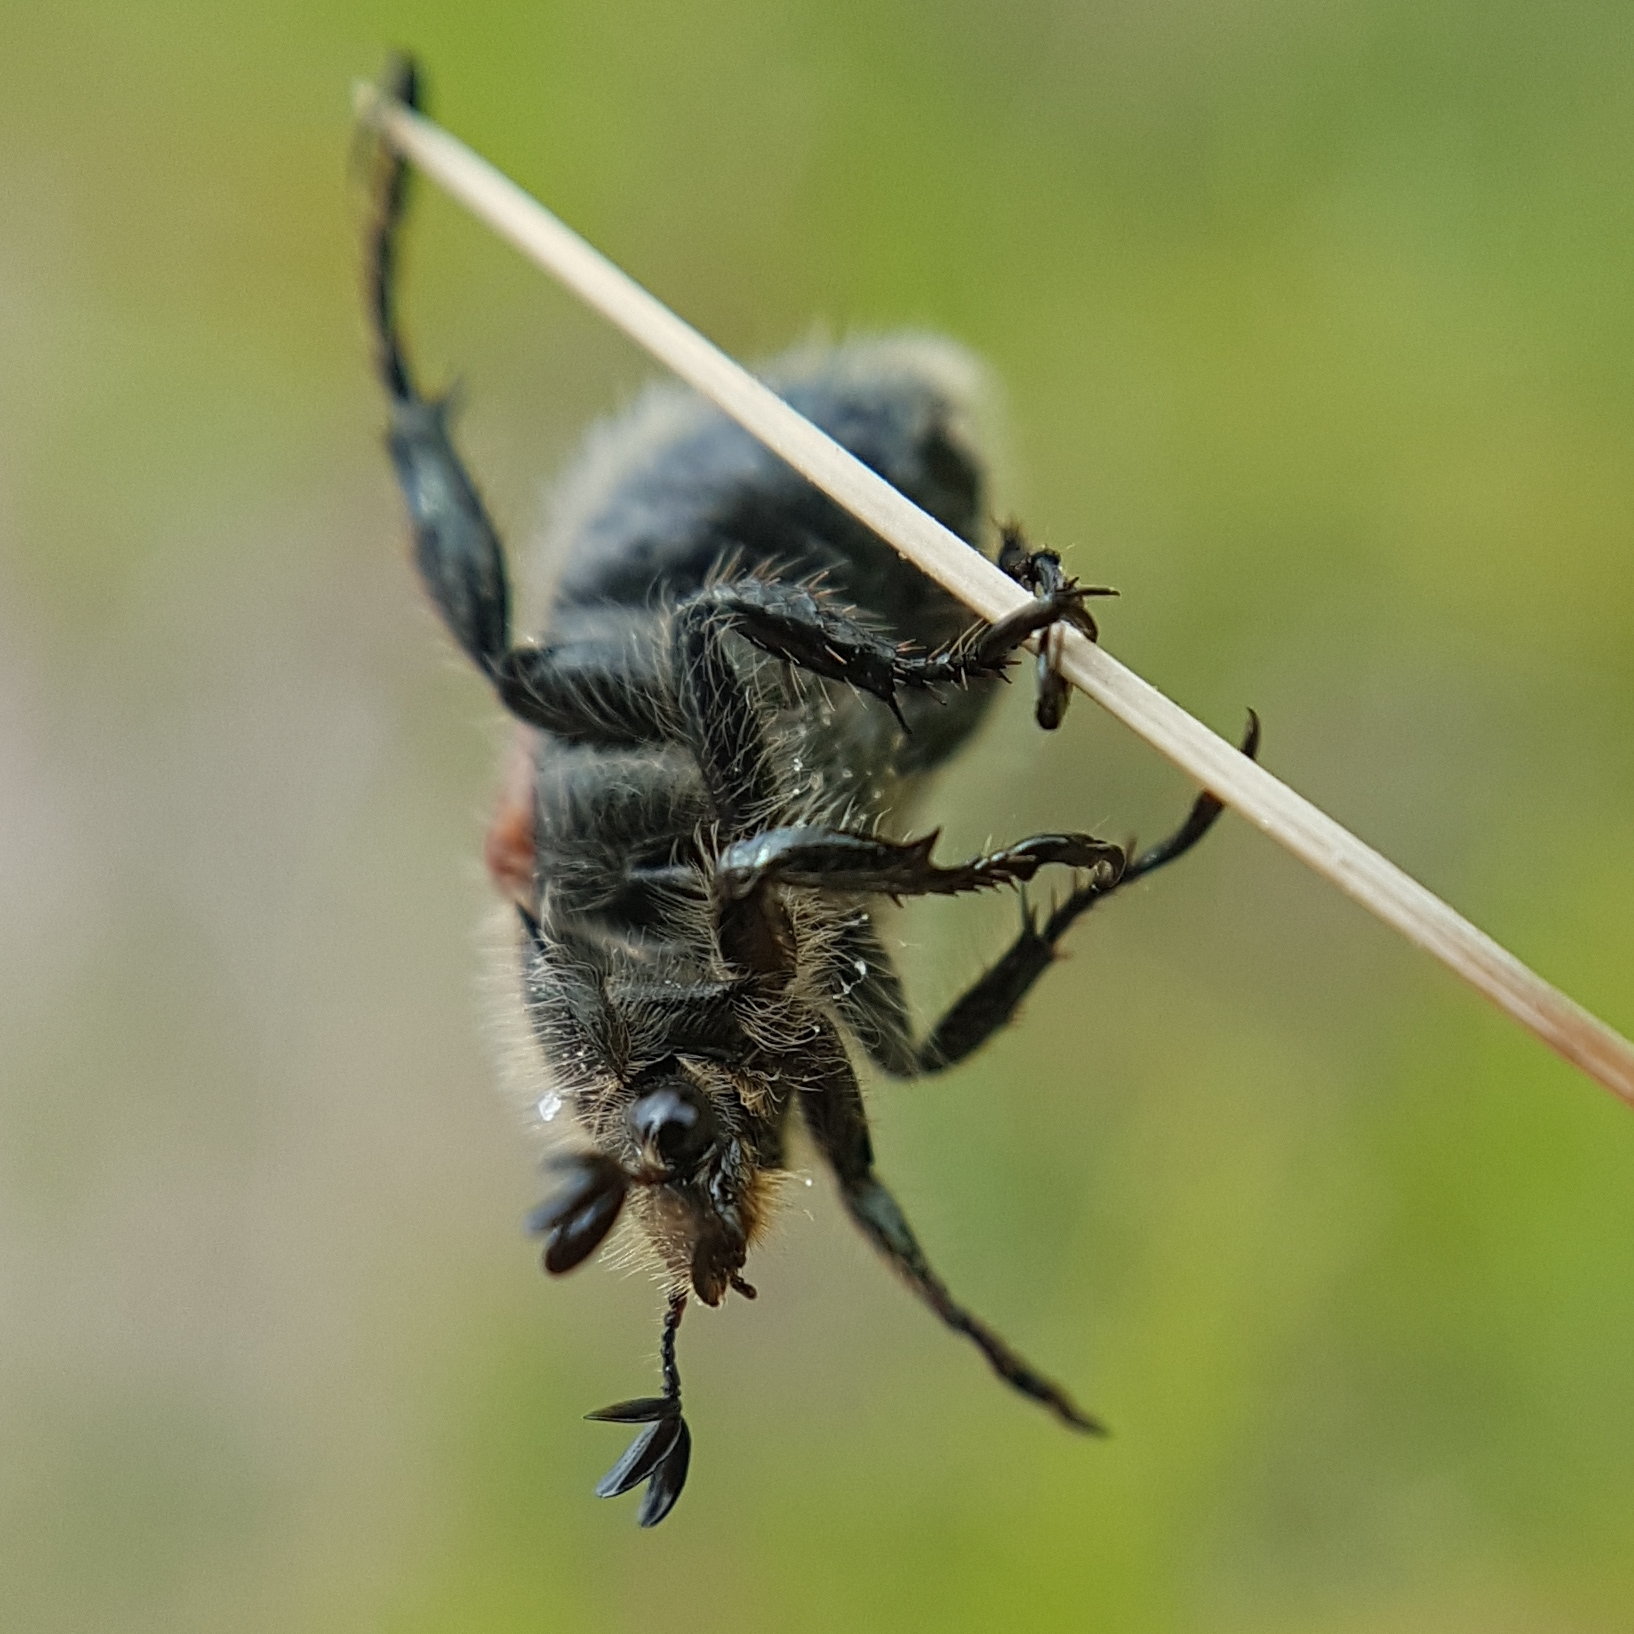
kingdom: Animalia
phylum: Arthropoda
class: Insecta
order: Coleoptera
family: Scarabaeidae
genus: Anisoplia
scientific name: Anisoplia remota
